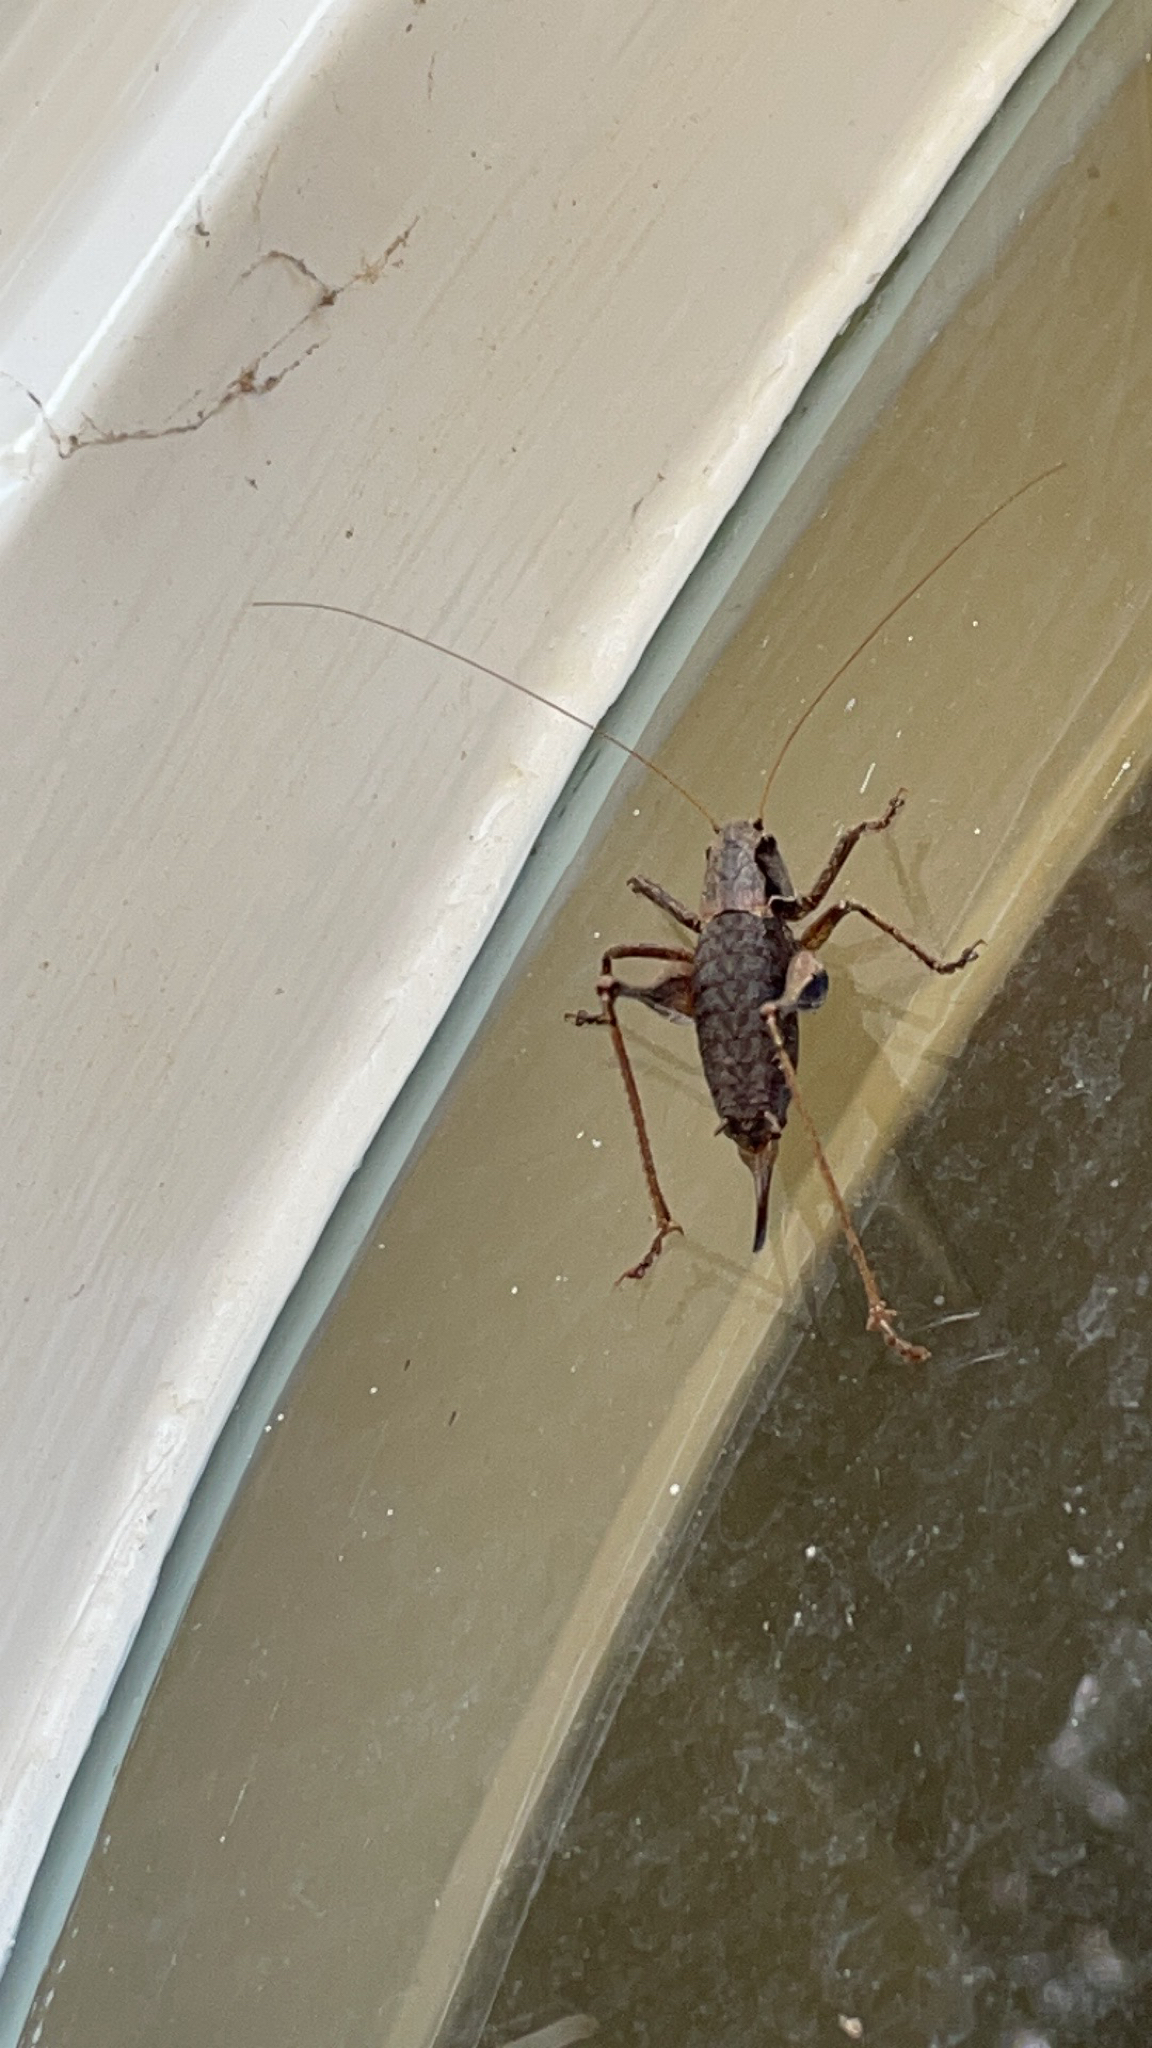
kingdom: Animalia
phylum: Arthropoda
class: Insecta
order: Orthoptera
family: Tettigoniidae
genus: Pholidoptera
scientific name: Pholidoptera griseoaptera
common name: Dark bush-cricket
